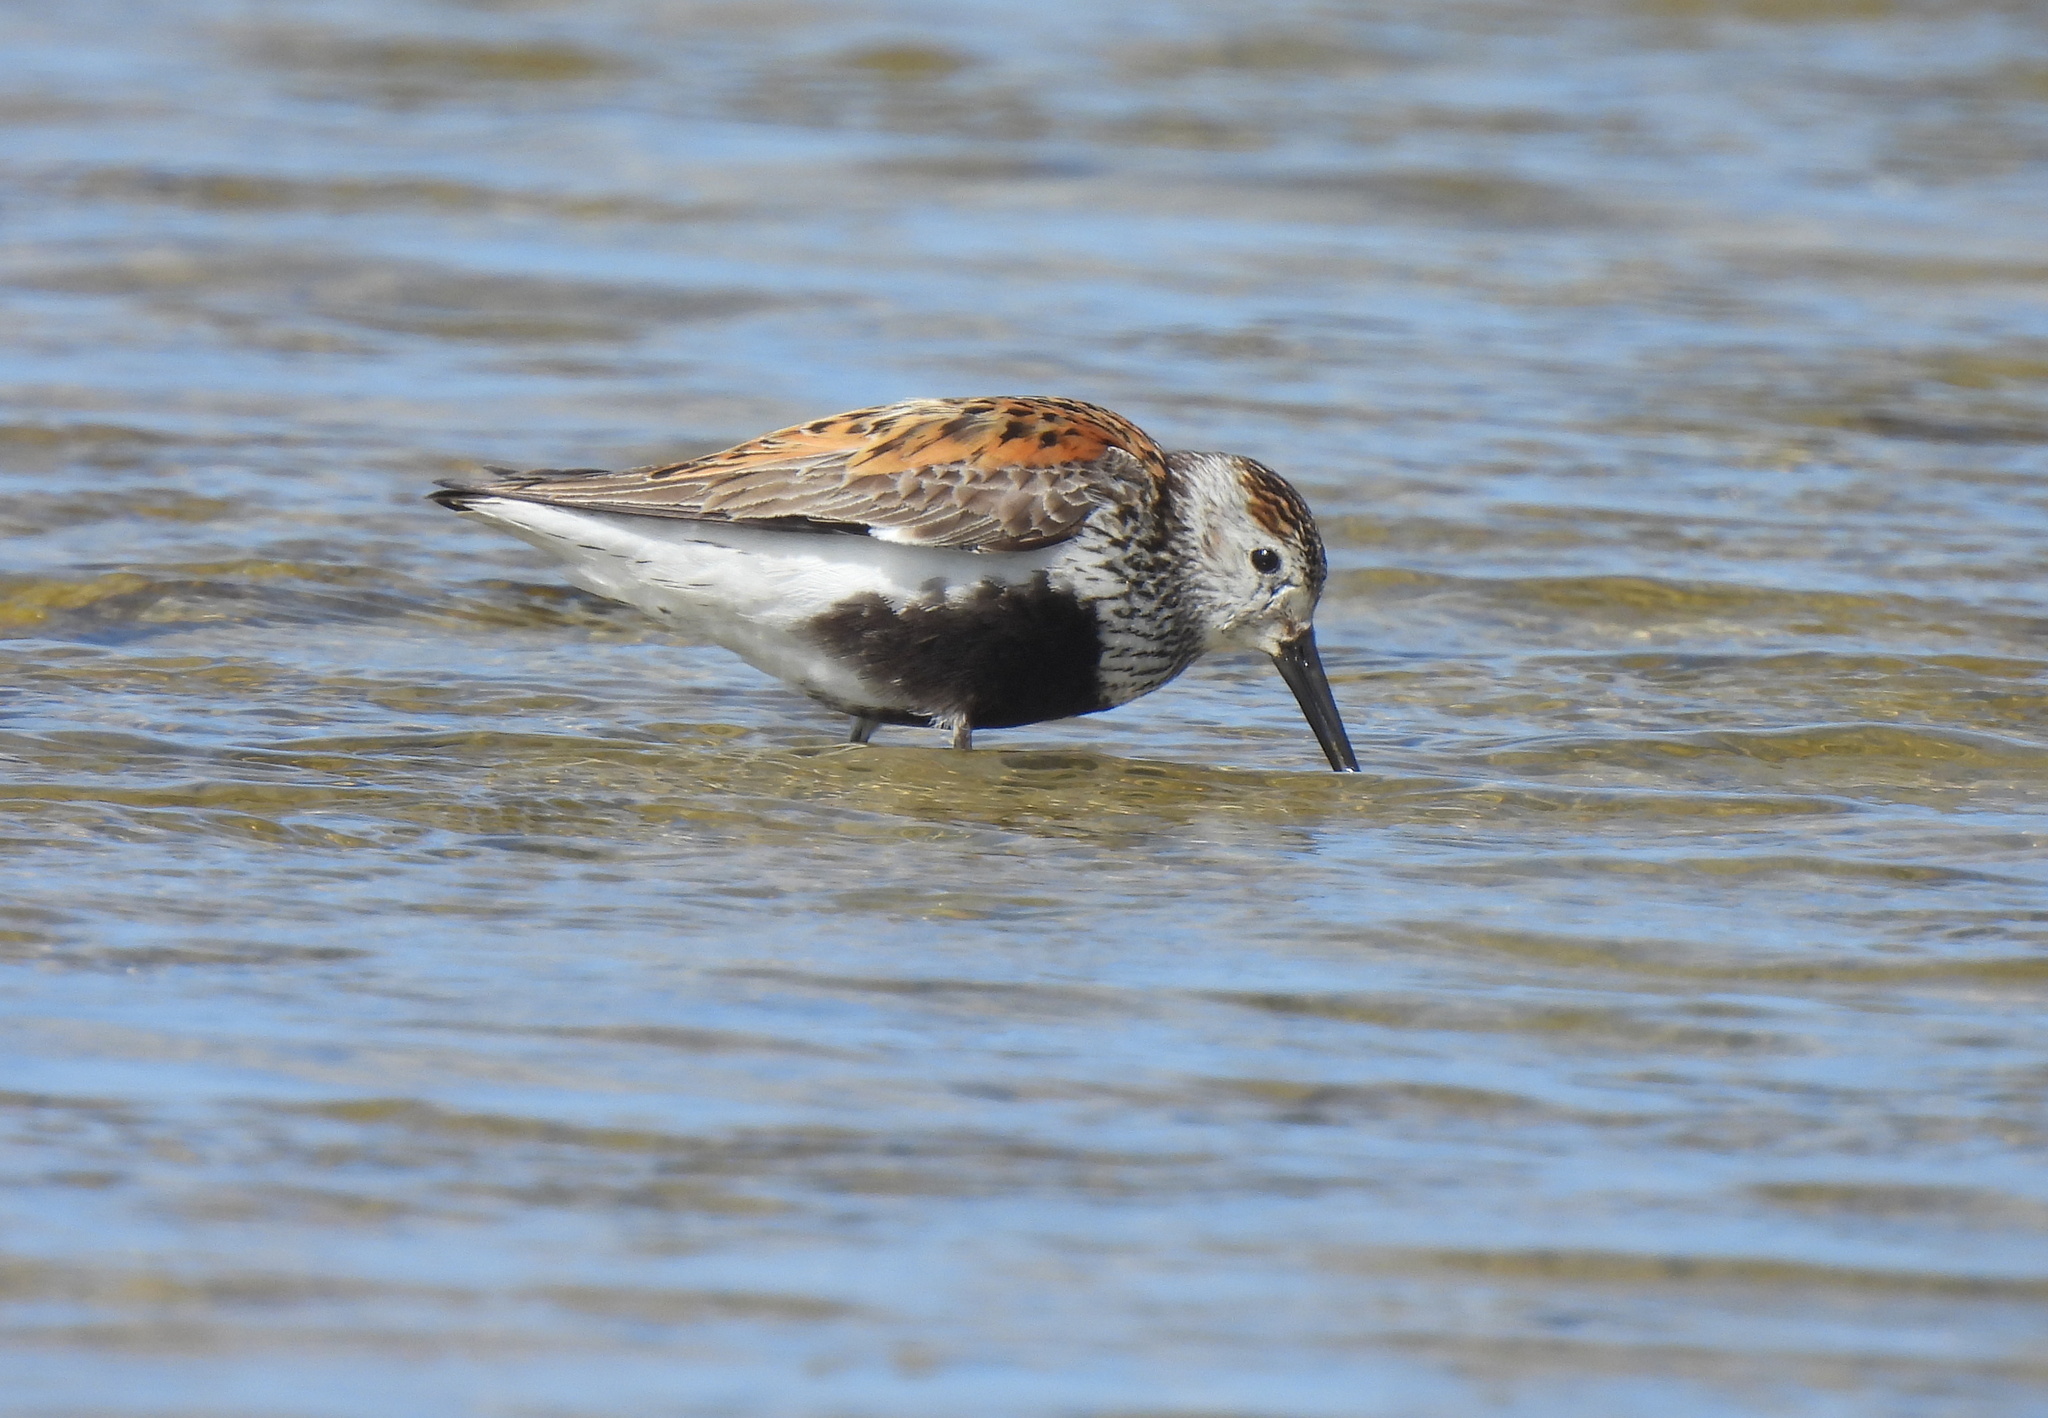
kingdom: Animalia
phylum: Chordata
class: Aves
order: Charadriiformes
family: Scolopacidae
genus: Calidris
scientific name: Calidris alpina
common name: Dunlin
